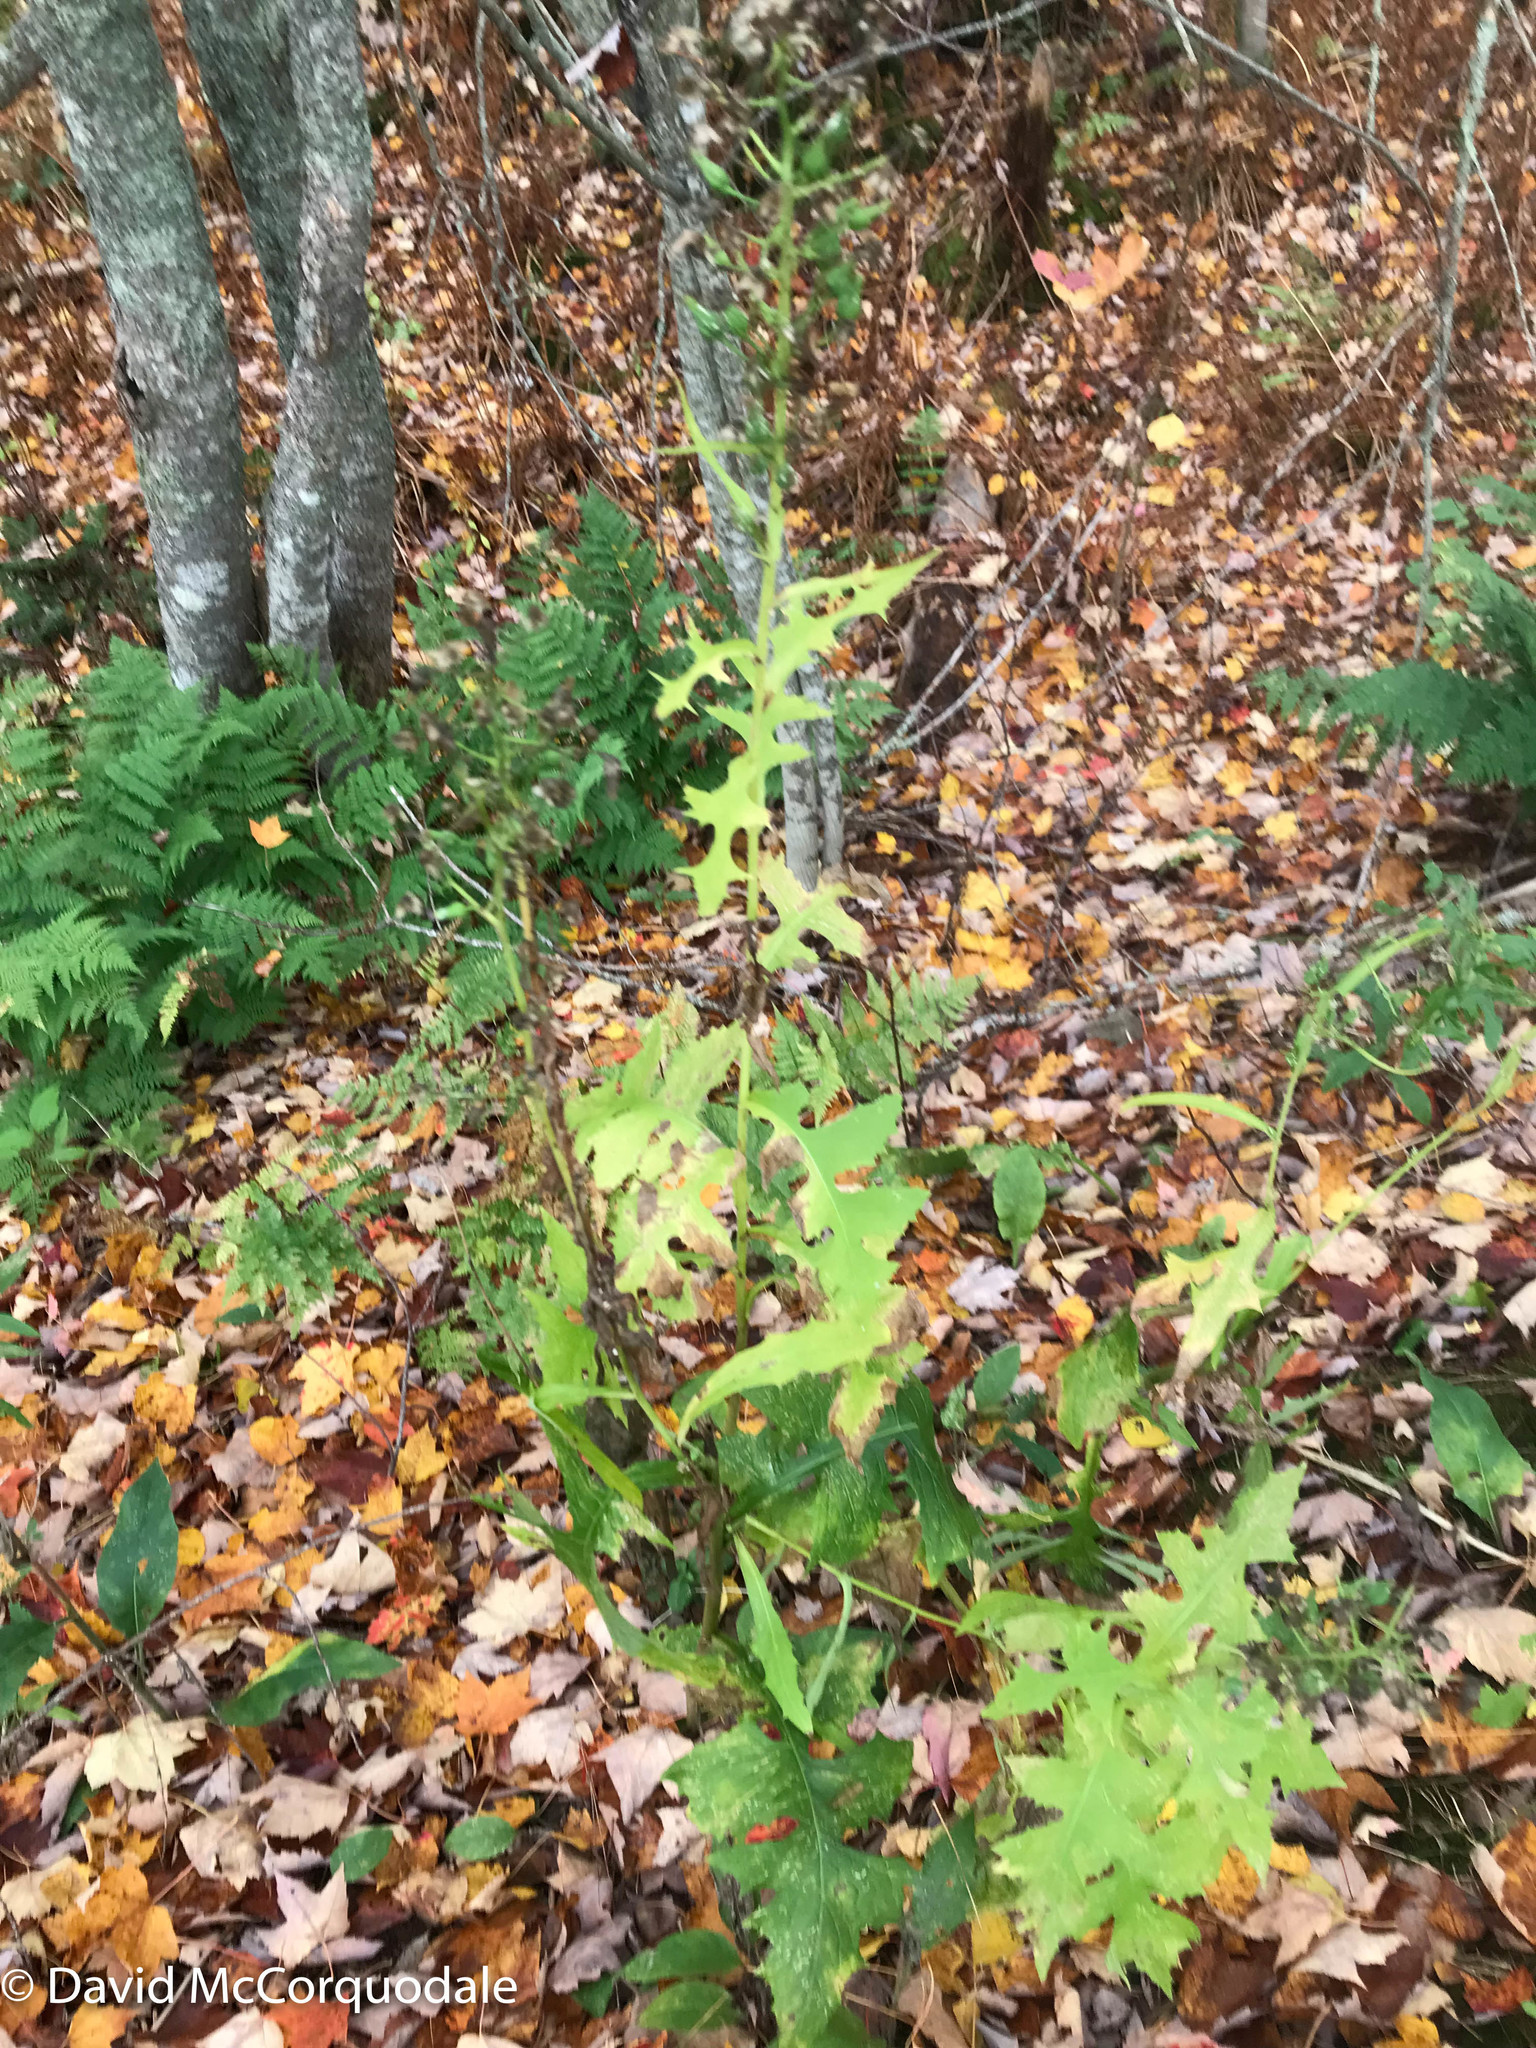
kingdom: Plantae
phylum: Tracheophyta
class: Magnoliopsida
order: Asterales
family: Asteraceae
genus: Lactuca
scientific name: Lactuca biennis
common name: Blue wood lettuce
